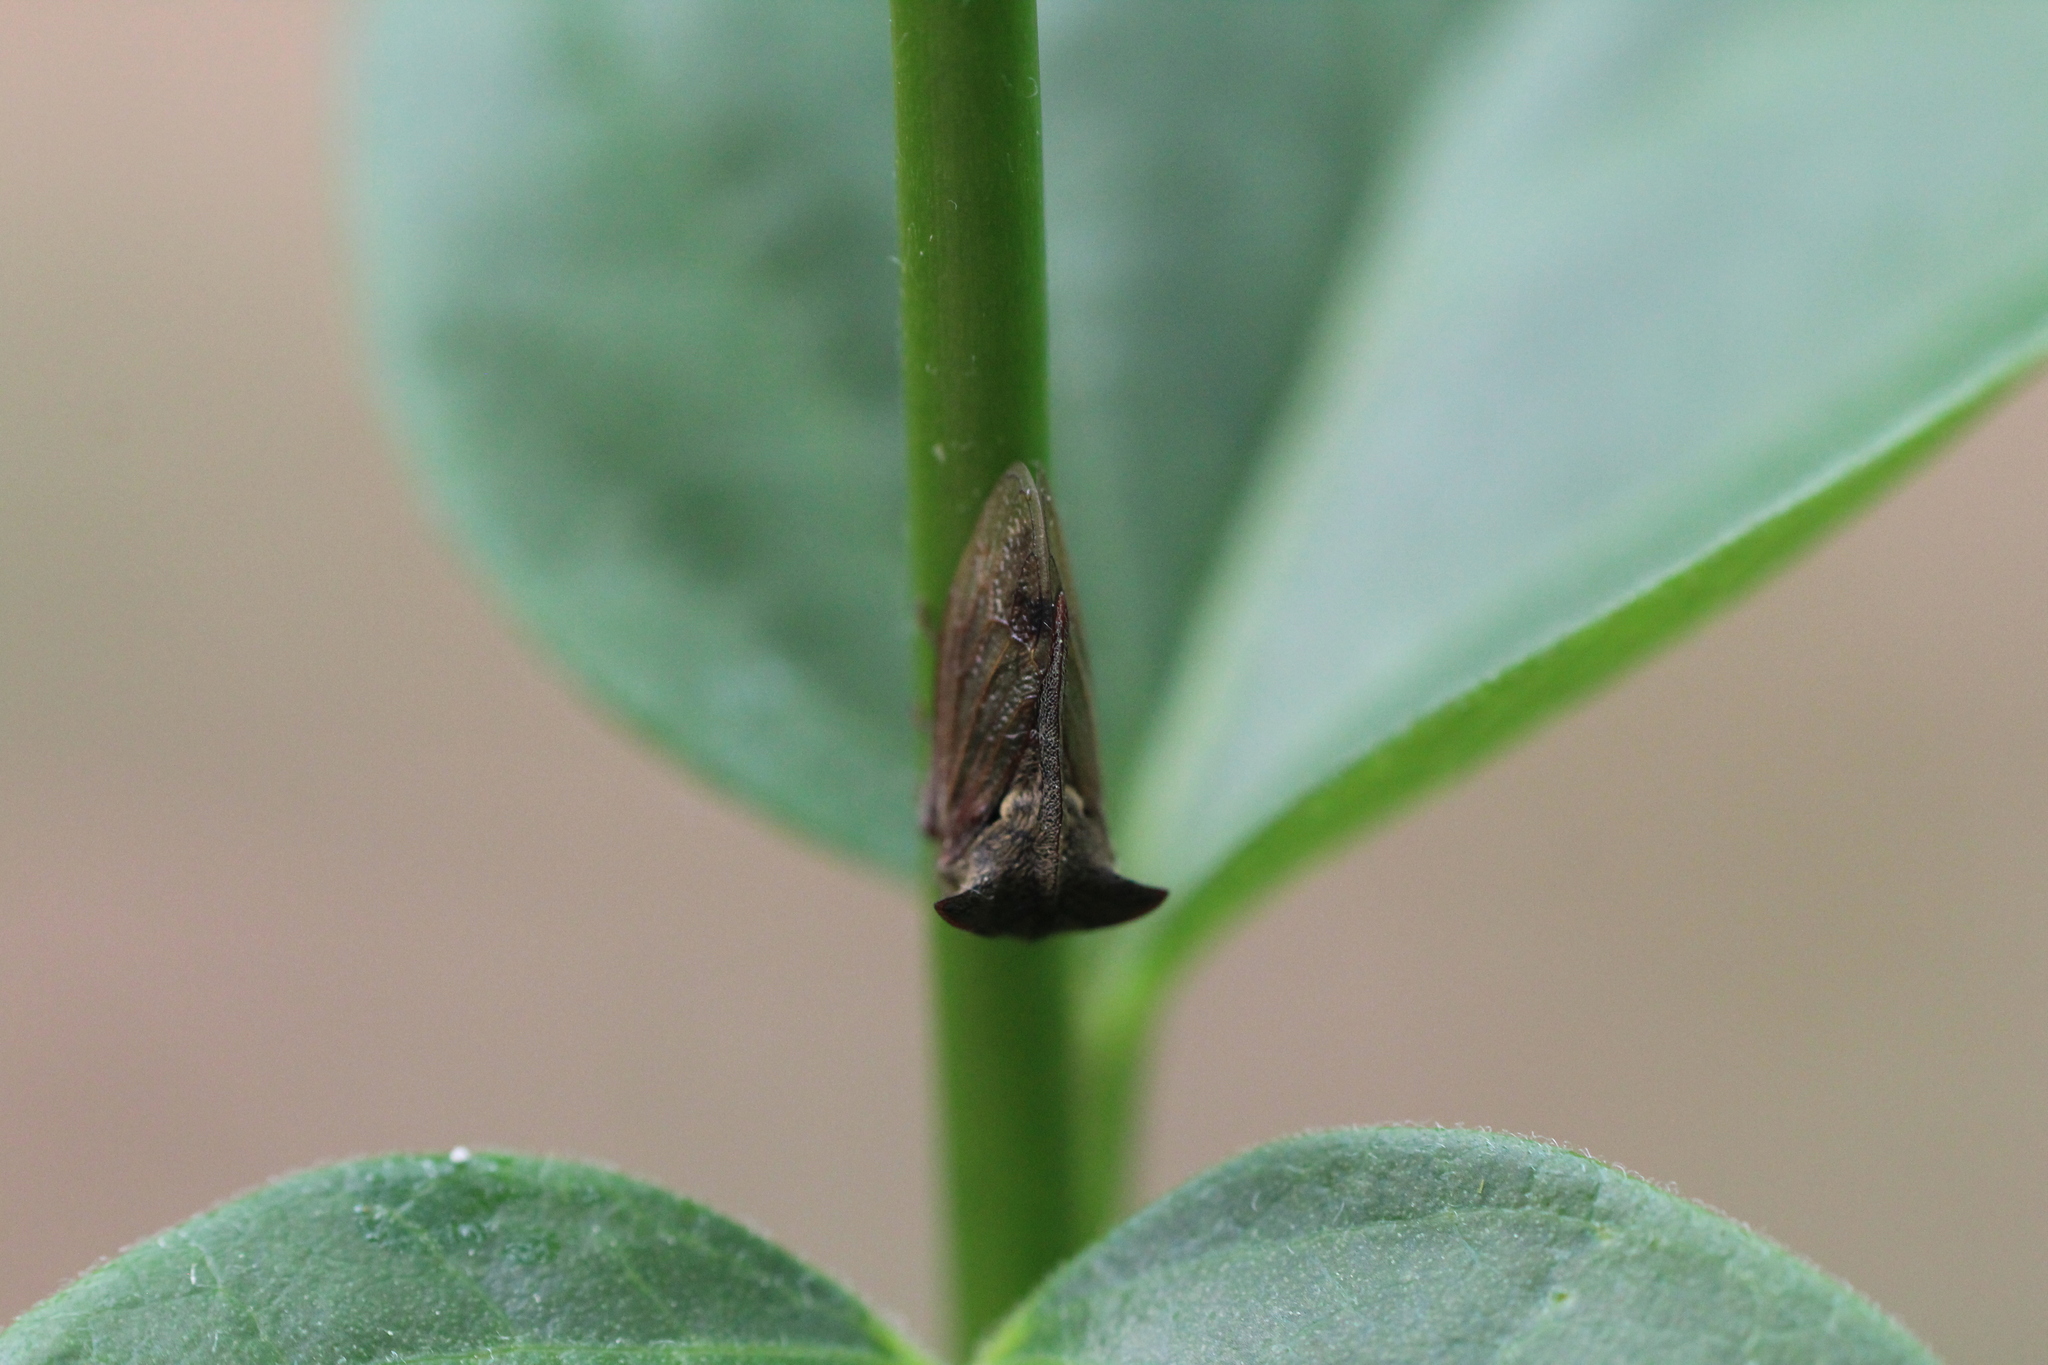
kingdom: Animalia
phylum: Arthropoda
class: Insecta
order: Hemiptera
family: Membracidae
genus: Centrotus
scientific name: Centrotus cornuta
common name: Treehopper
